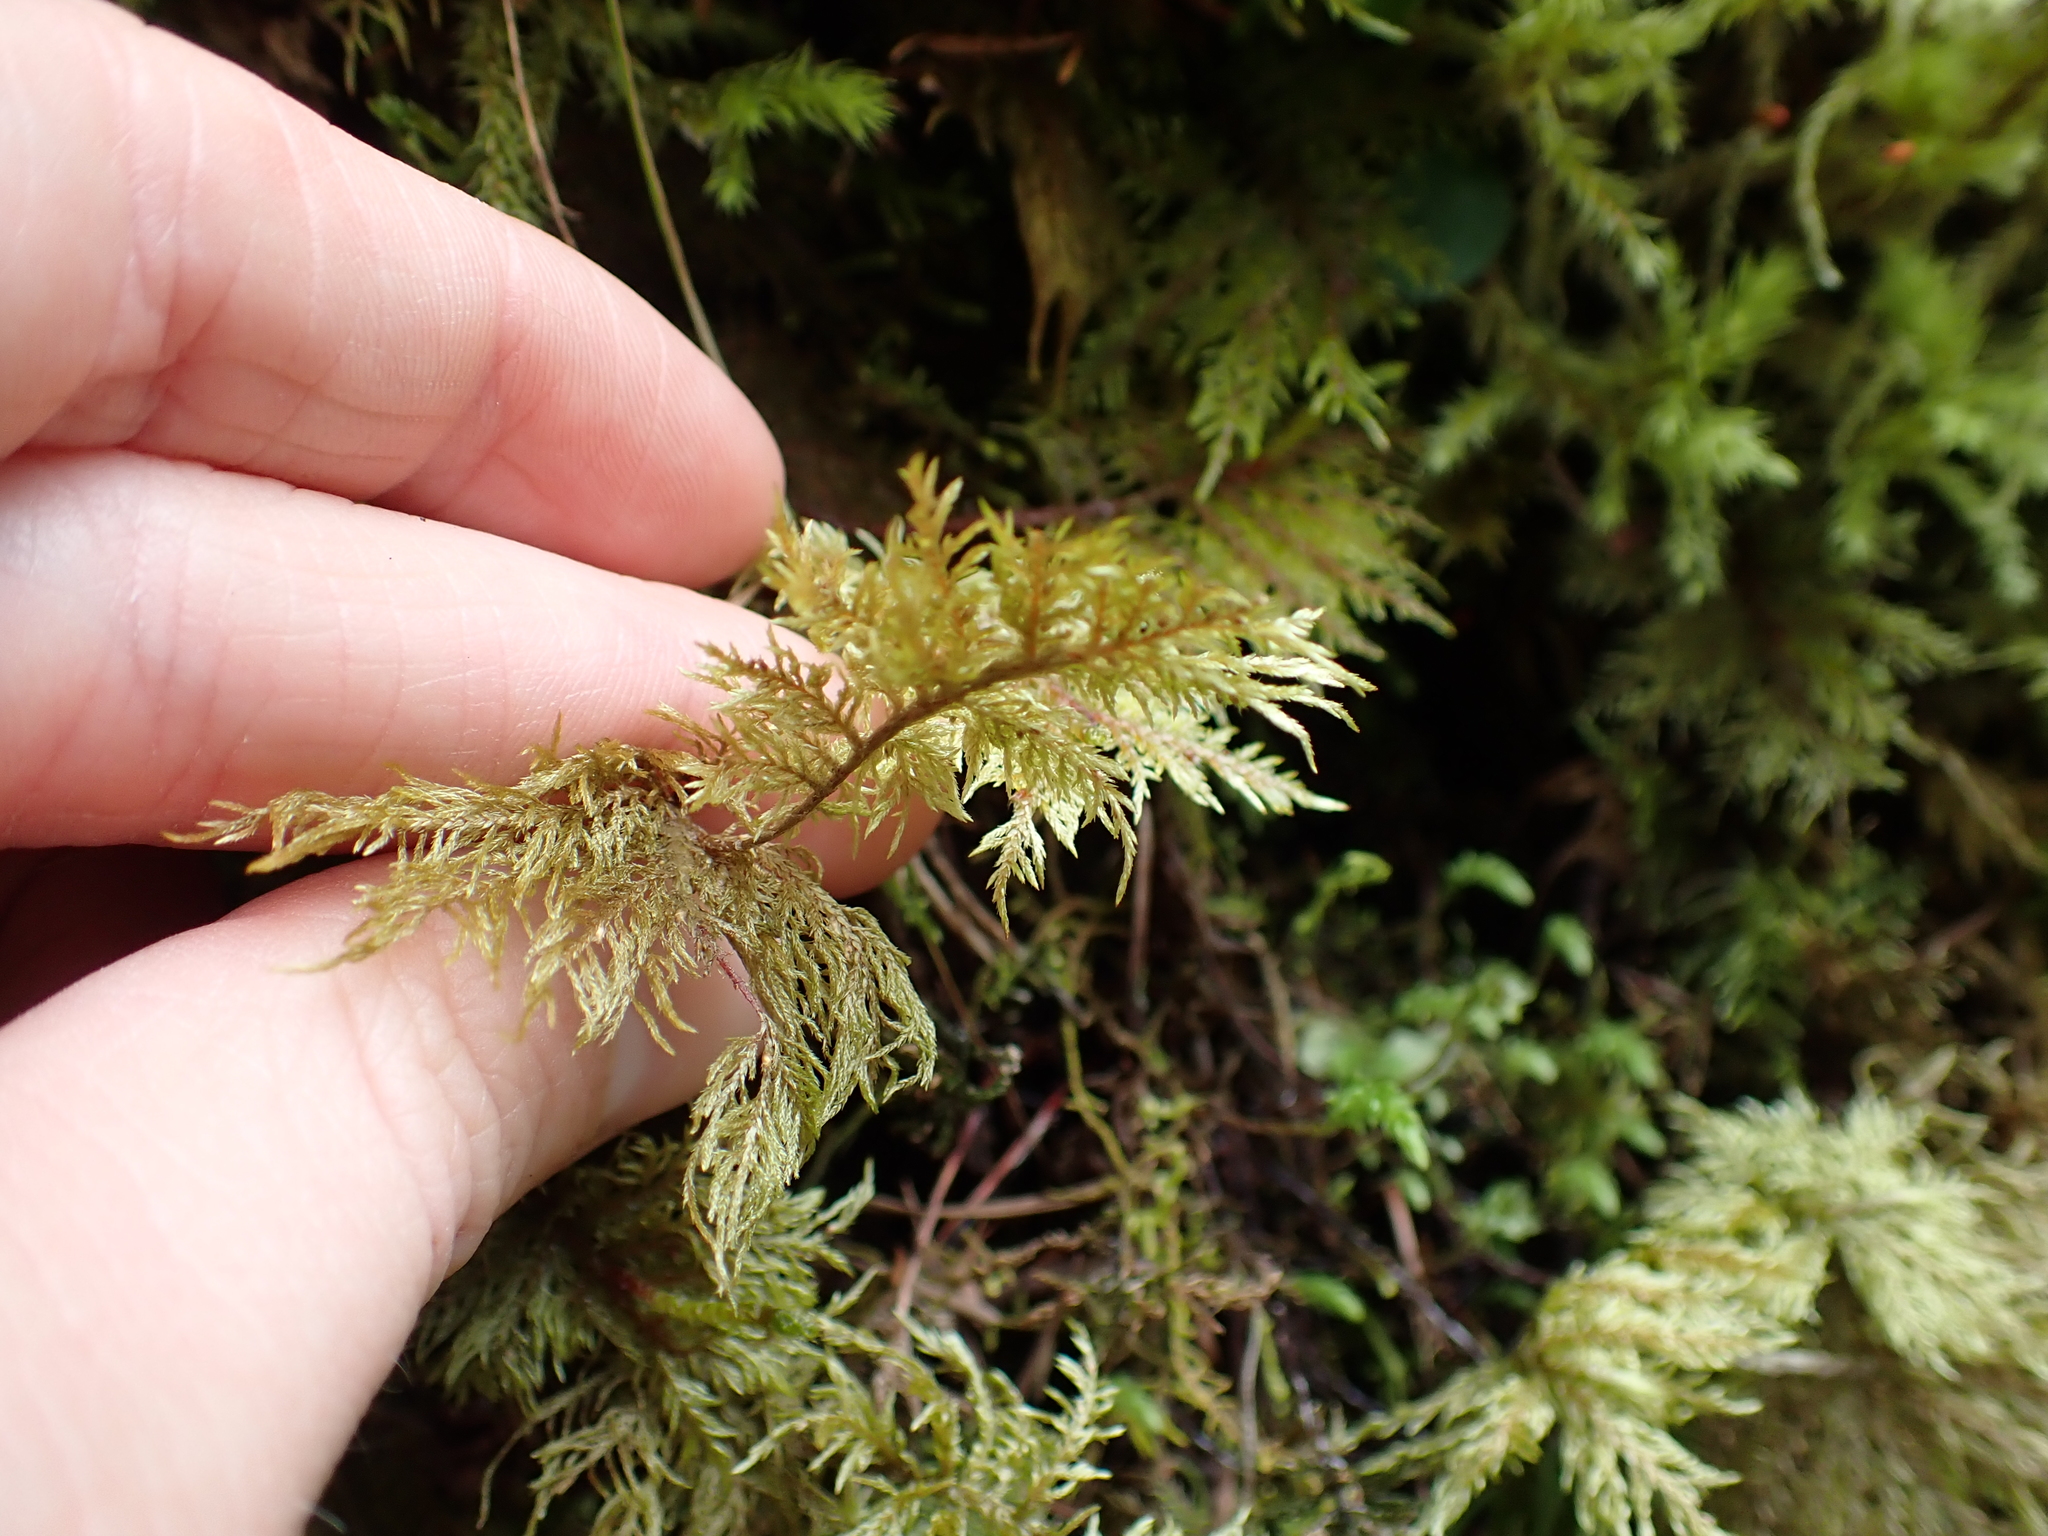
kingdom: Plantae
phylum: Bryophyta
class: Bryopsida
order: Hypnales
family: Hylocomiaceae
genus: Hylocomium
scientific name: Hylocomium splendens
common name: Stairstep moss
